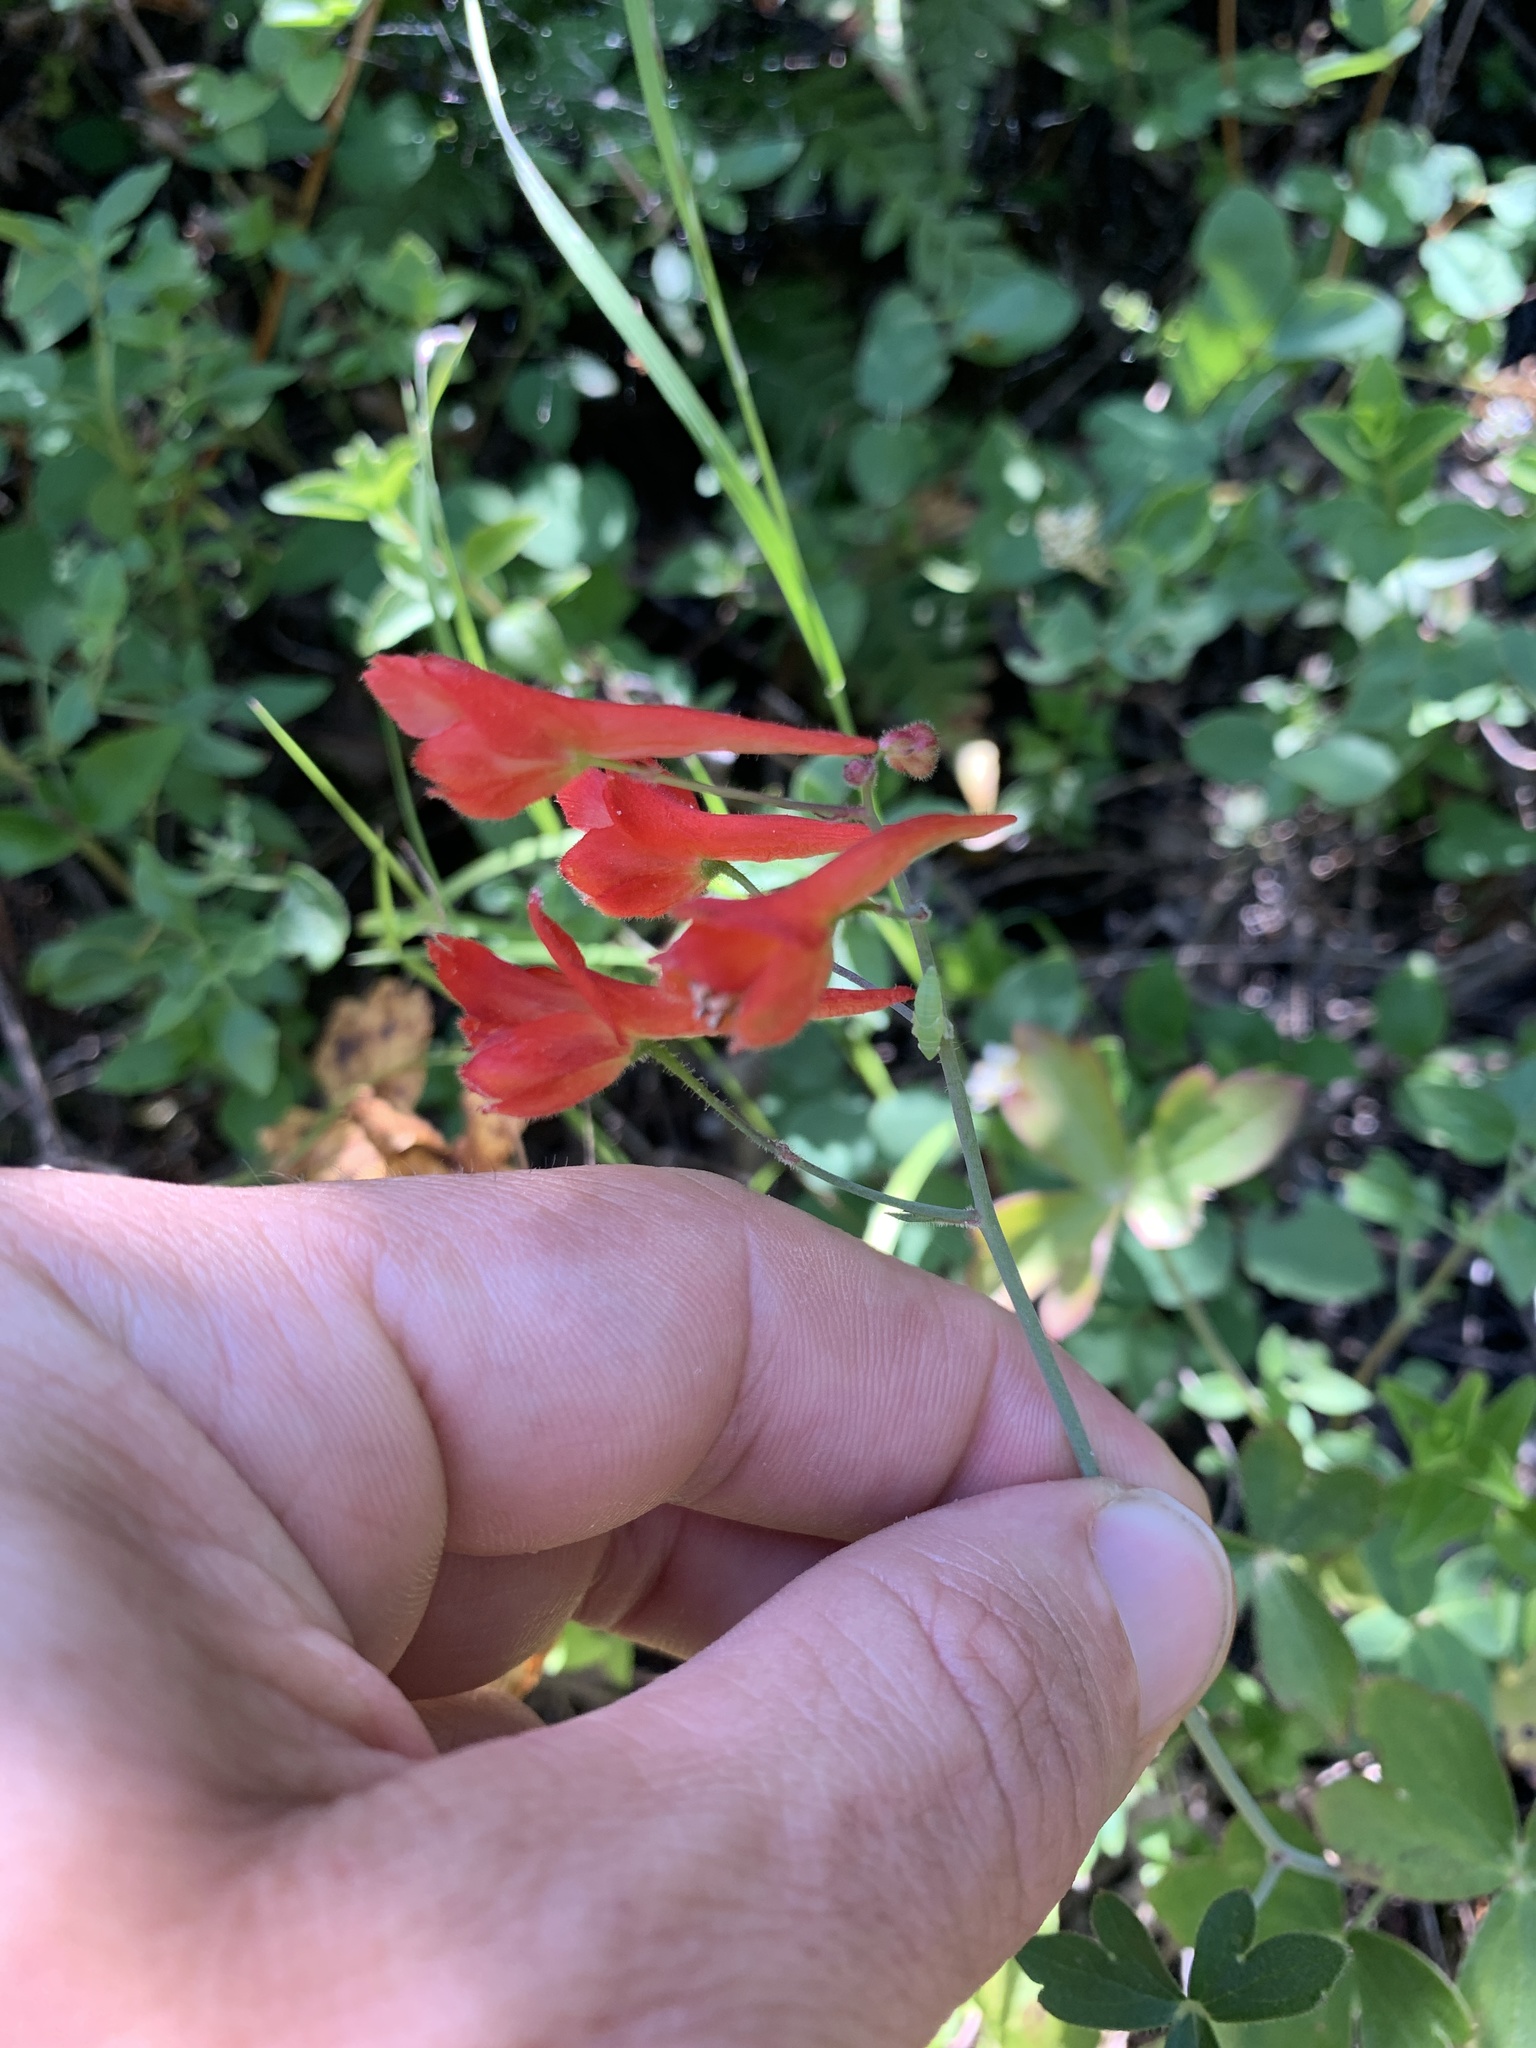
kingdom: Plantae
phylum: Tracheophyta
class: Magnoliopsida
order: Ranunculales
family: Ranunculaceae
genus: Delphinium
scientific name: Delphinium nudicaule
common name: Red larkspur
